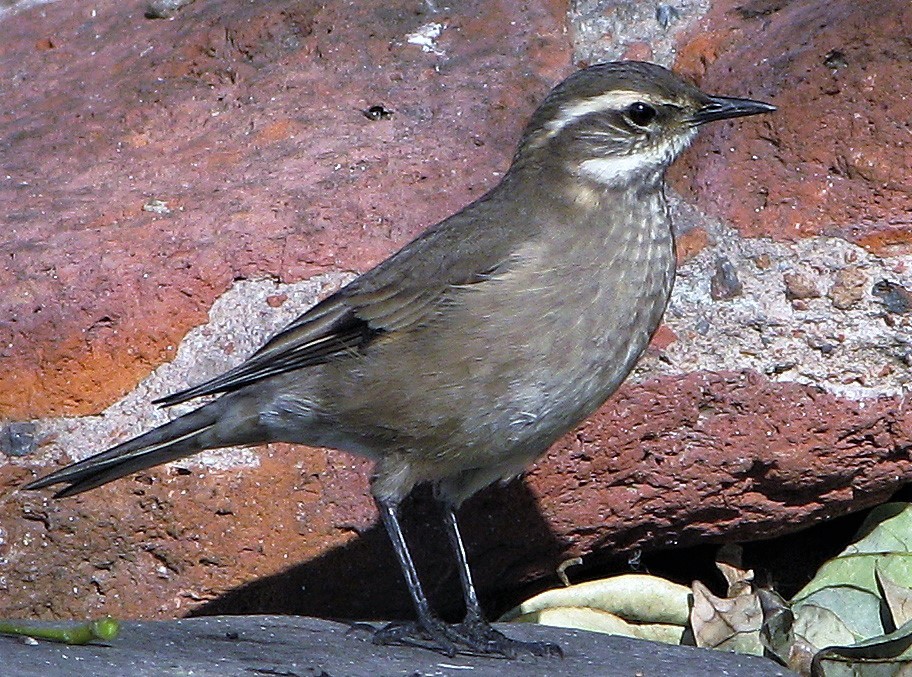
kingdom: Animalia
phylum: Chordata
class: Aves
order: Passeriformes
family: Furnariidae
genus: Cinclodes
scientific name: Cinclodes fuscus
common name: Buff-winged cinclodes
